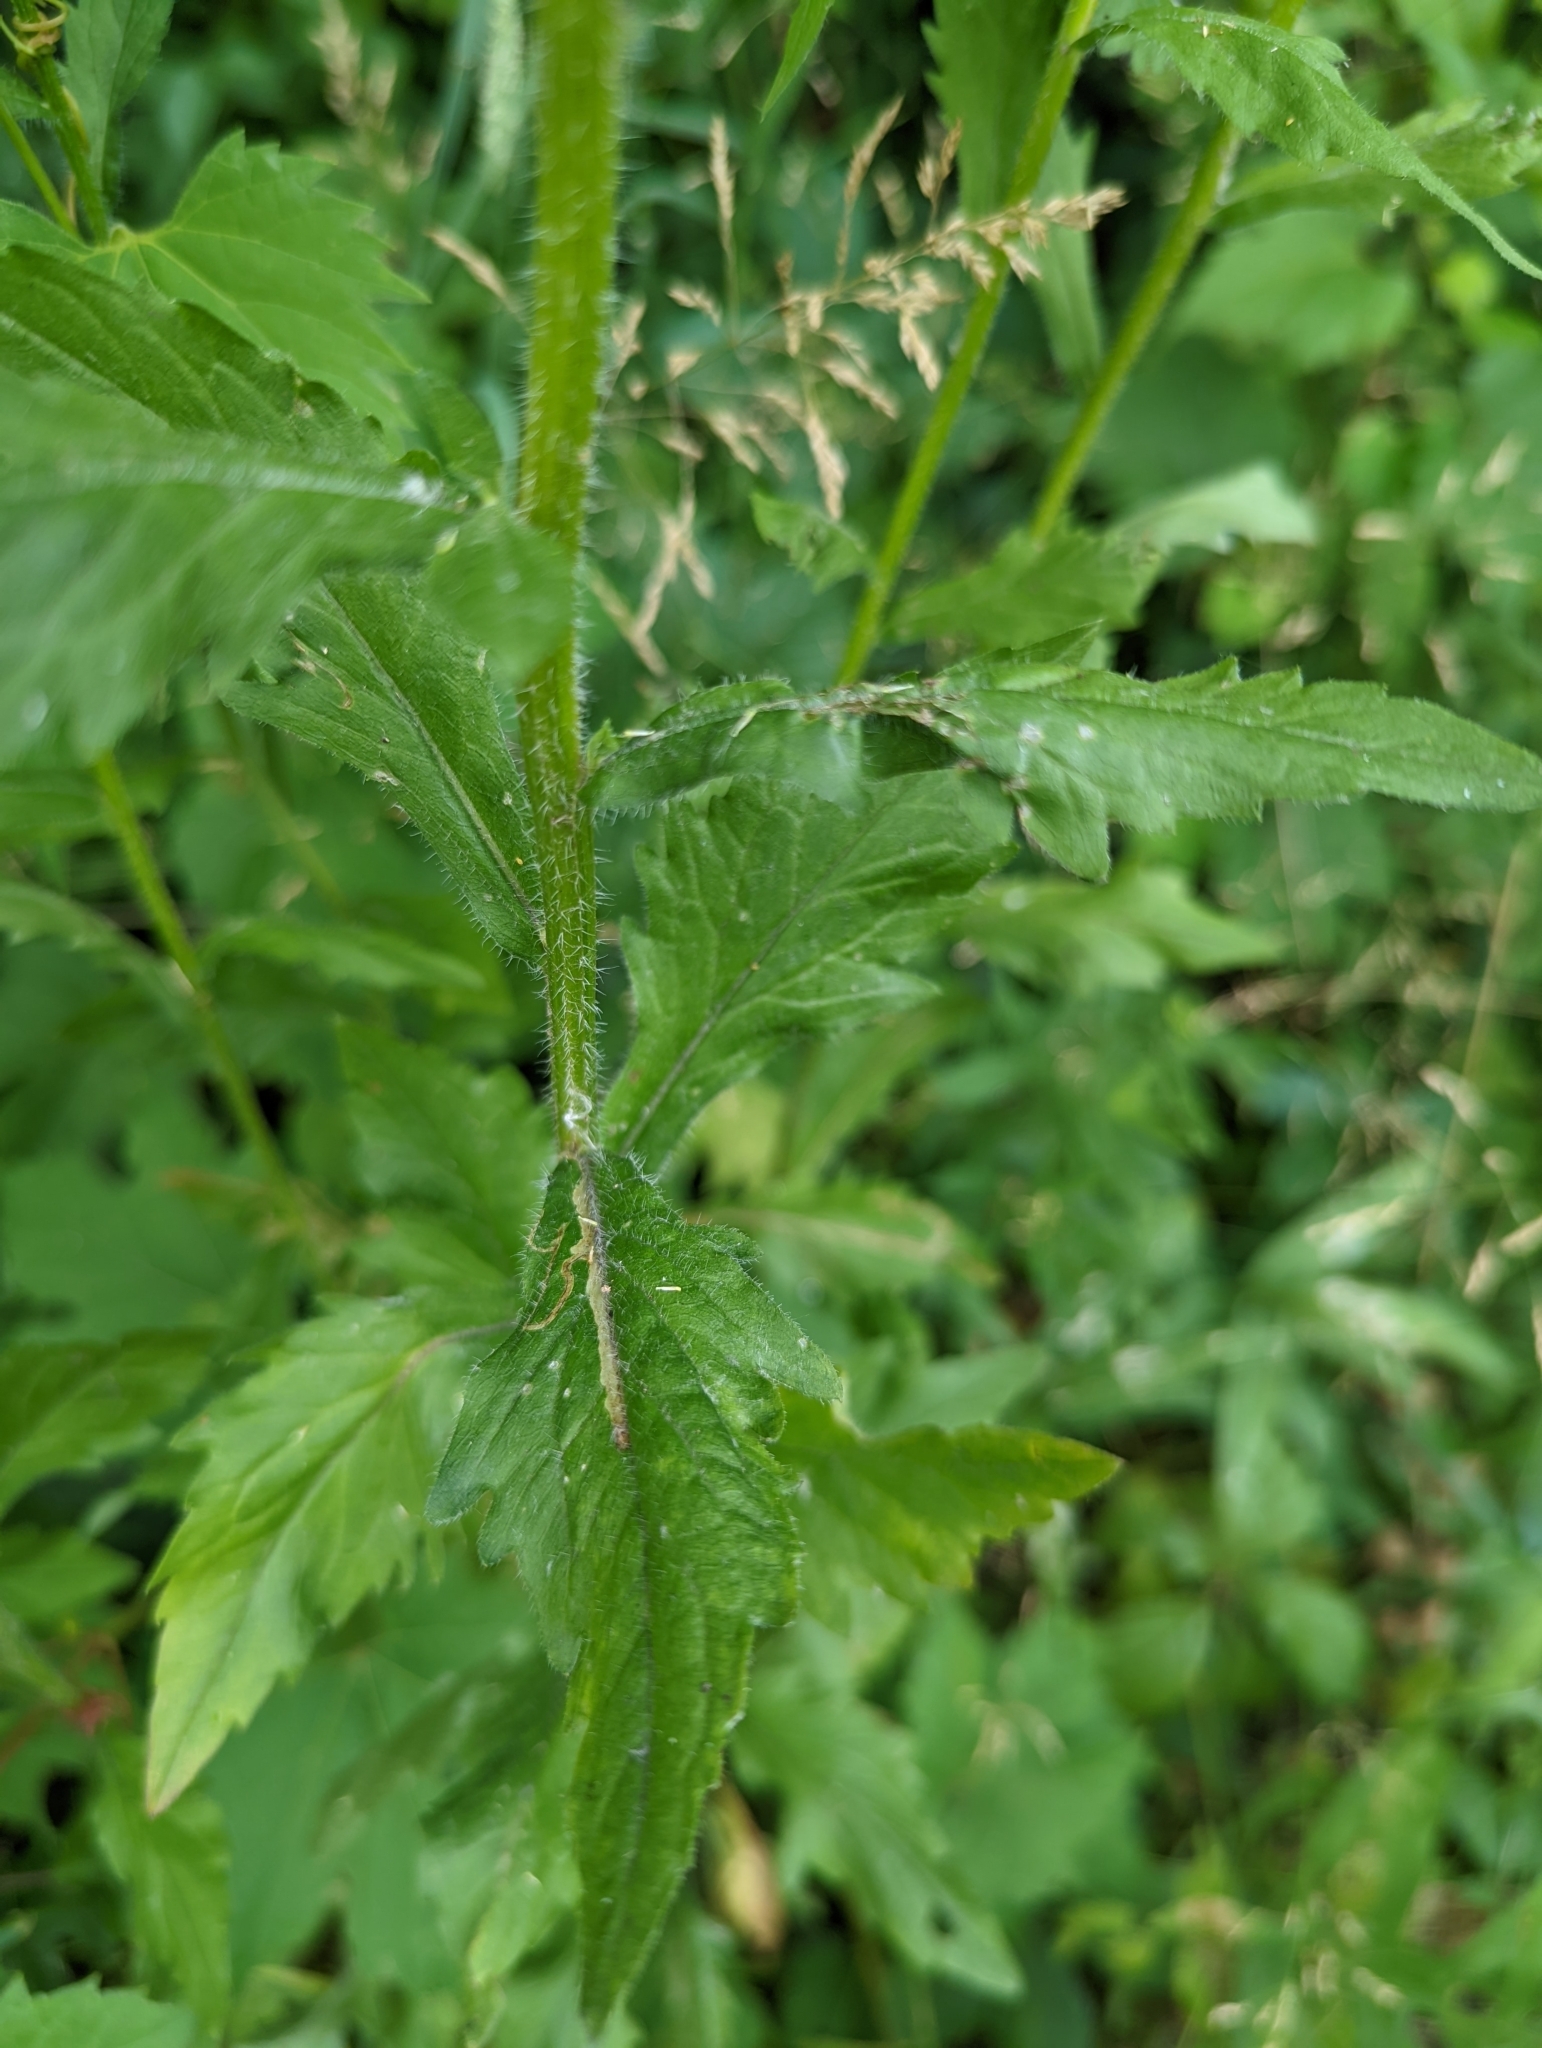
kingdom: Plantae
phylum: Tracheophyta
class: Magnoliopsida
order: Asterales
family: Asteraceae
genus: Erigeron
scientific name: Erigeron annuus
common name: Tall fleabane
